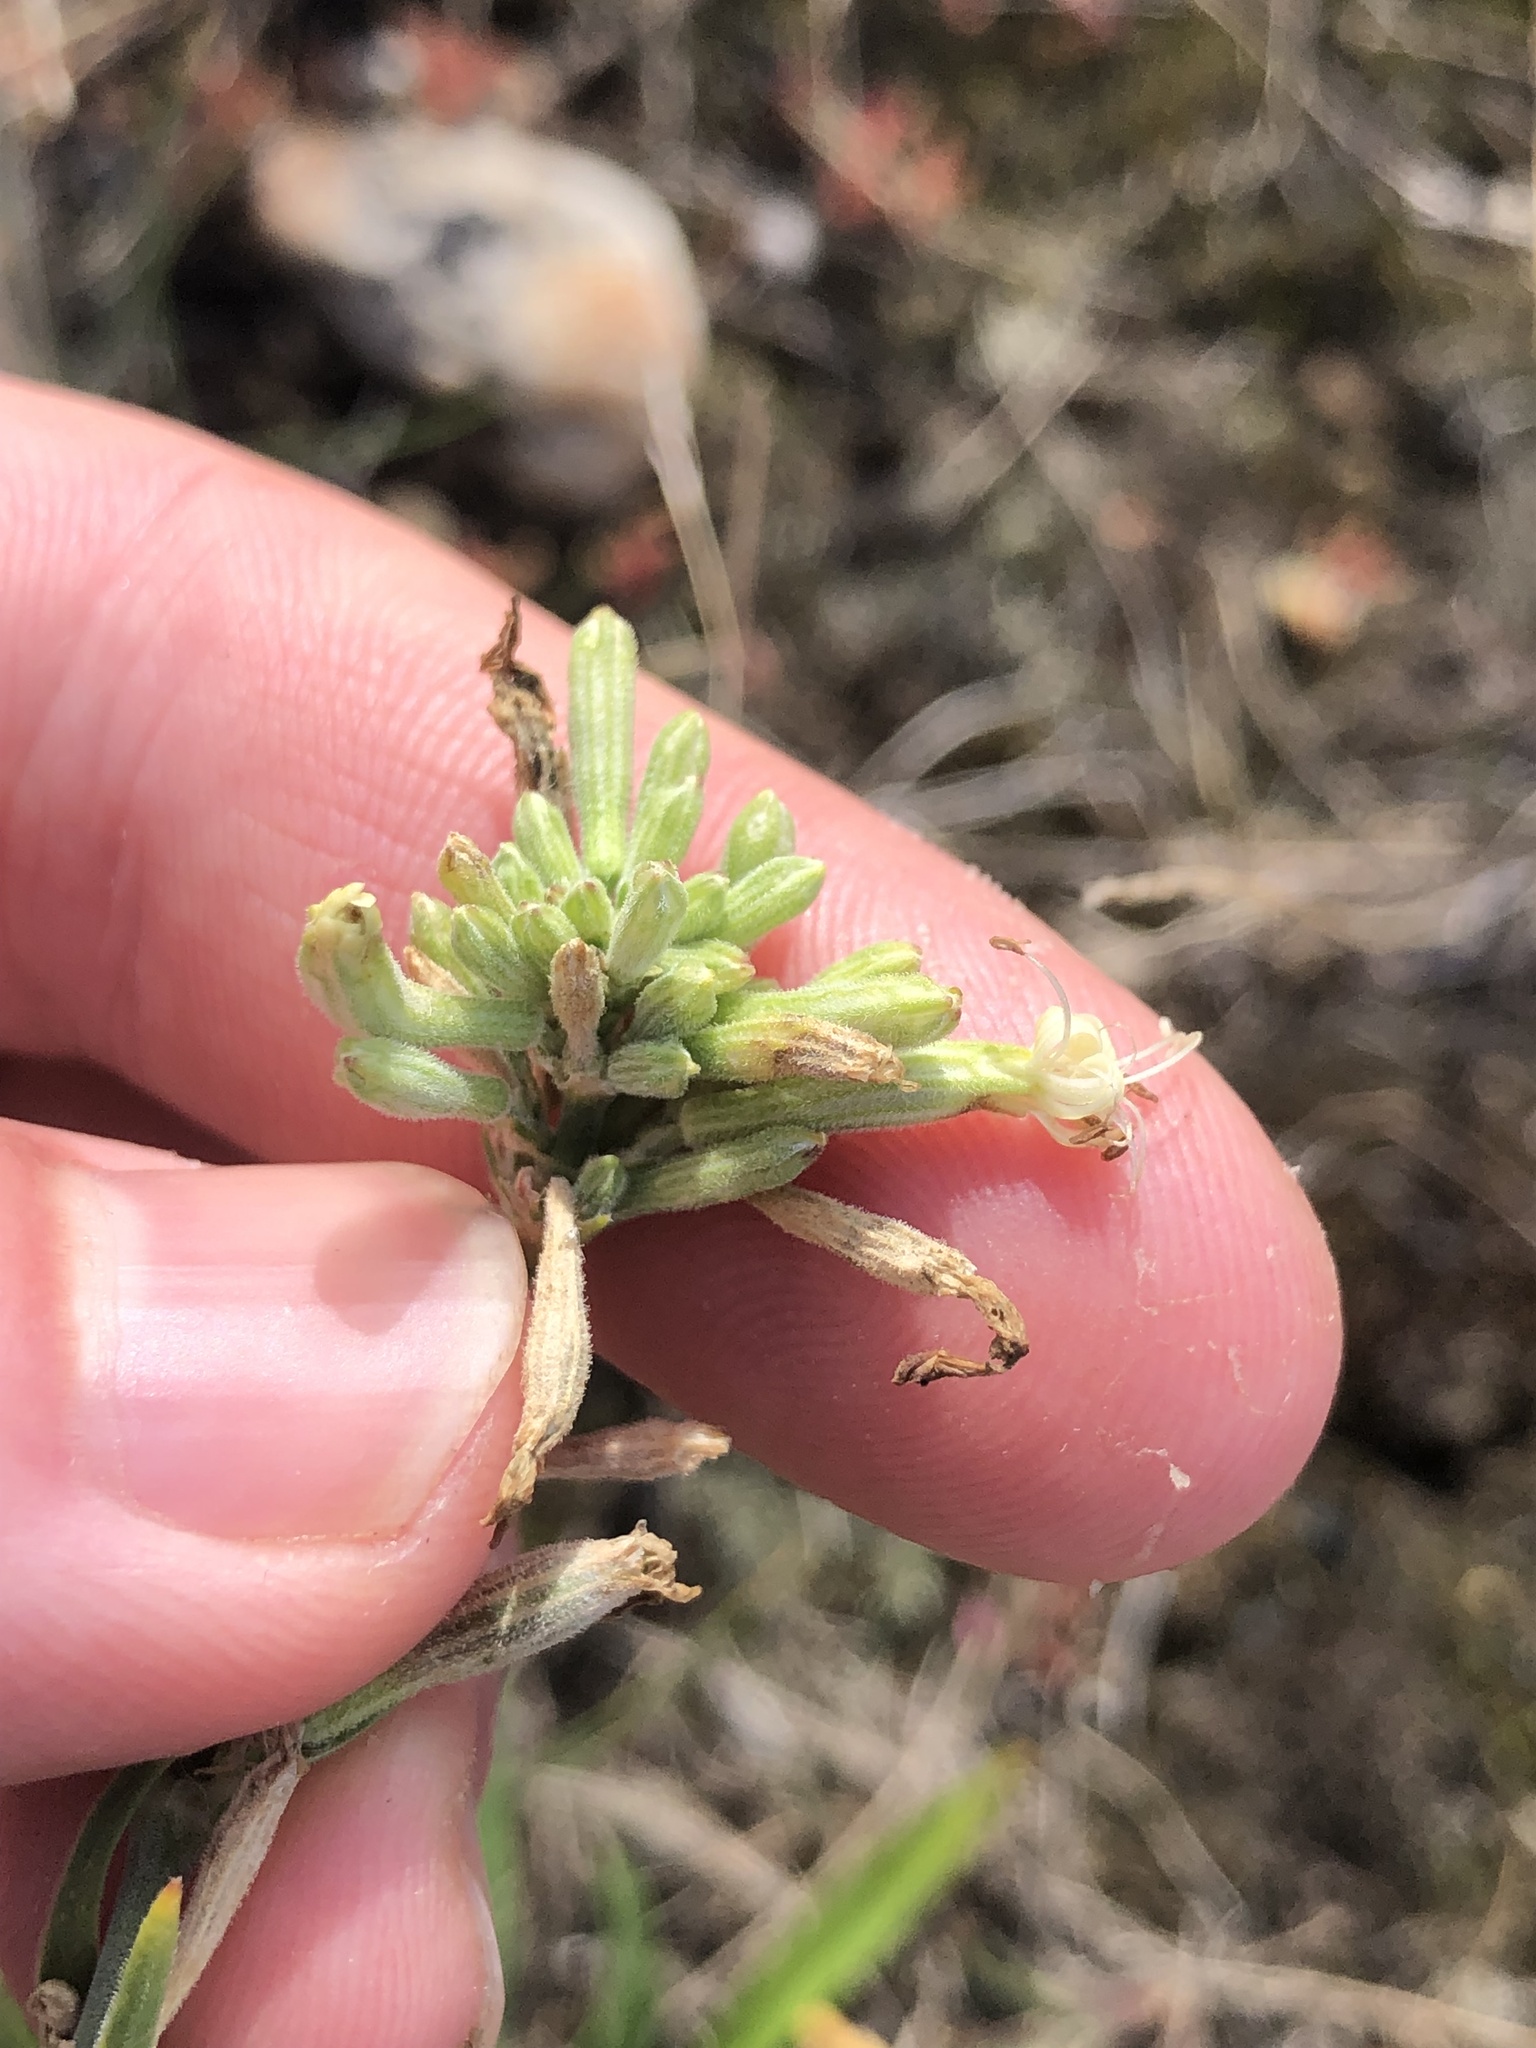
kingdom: Plantae
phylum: Tracheophyta
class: Magnoliopsida
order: Caryophyllales
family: Caryophyllaceae
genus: Silene
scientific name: Silene multiflora
